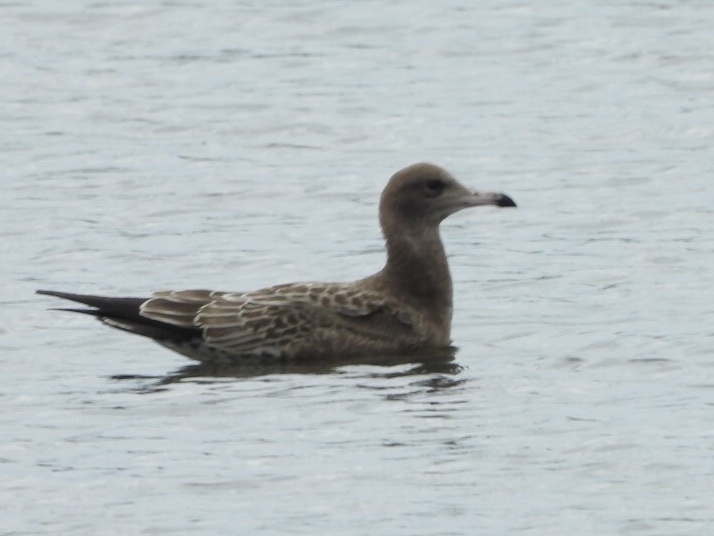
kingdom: Animalia
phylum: Chordata
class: Aves
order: Charadriiformes
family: Laridae
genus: Larus
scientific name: Larus crassirostris
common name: Black-tailed gull
